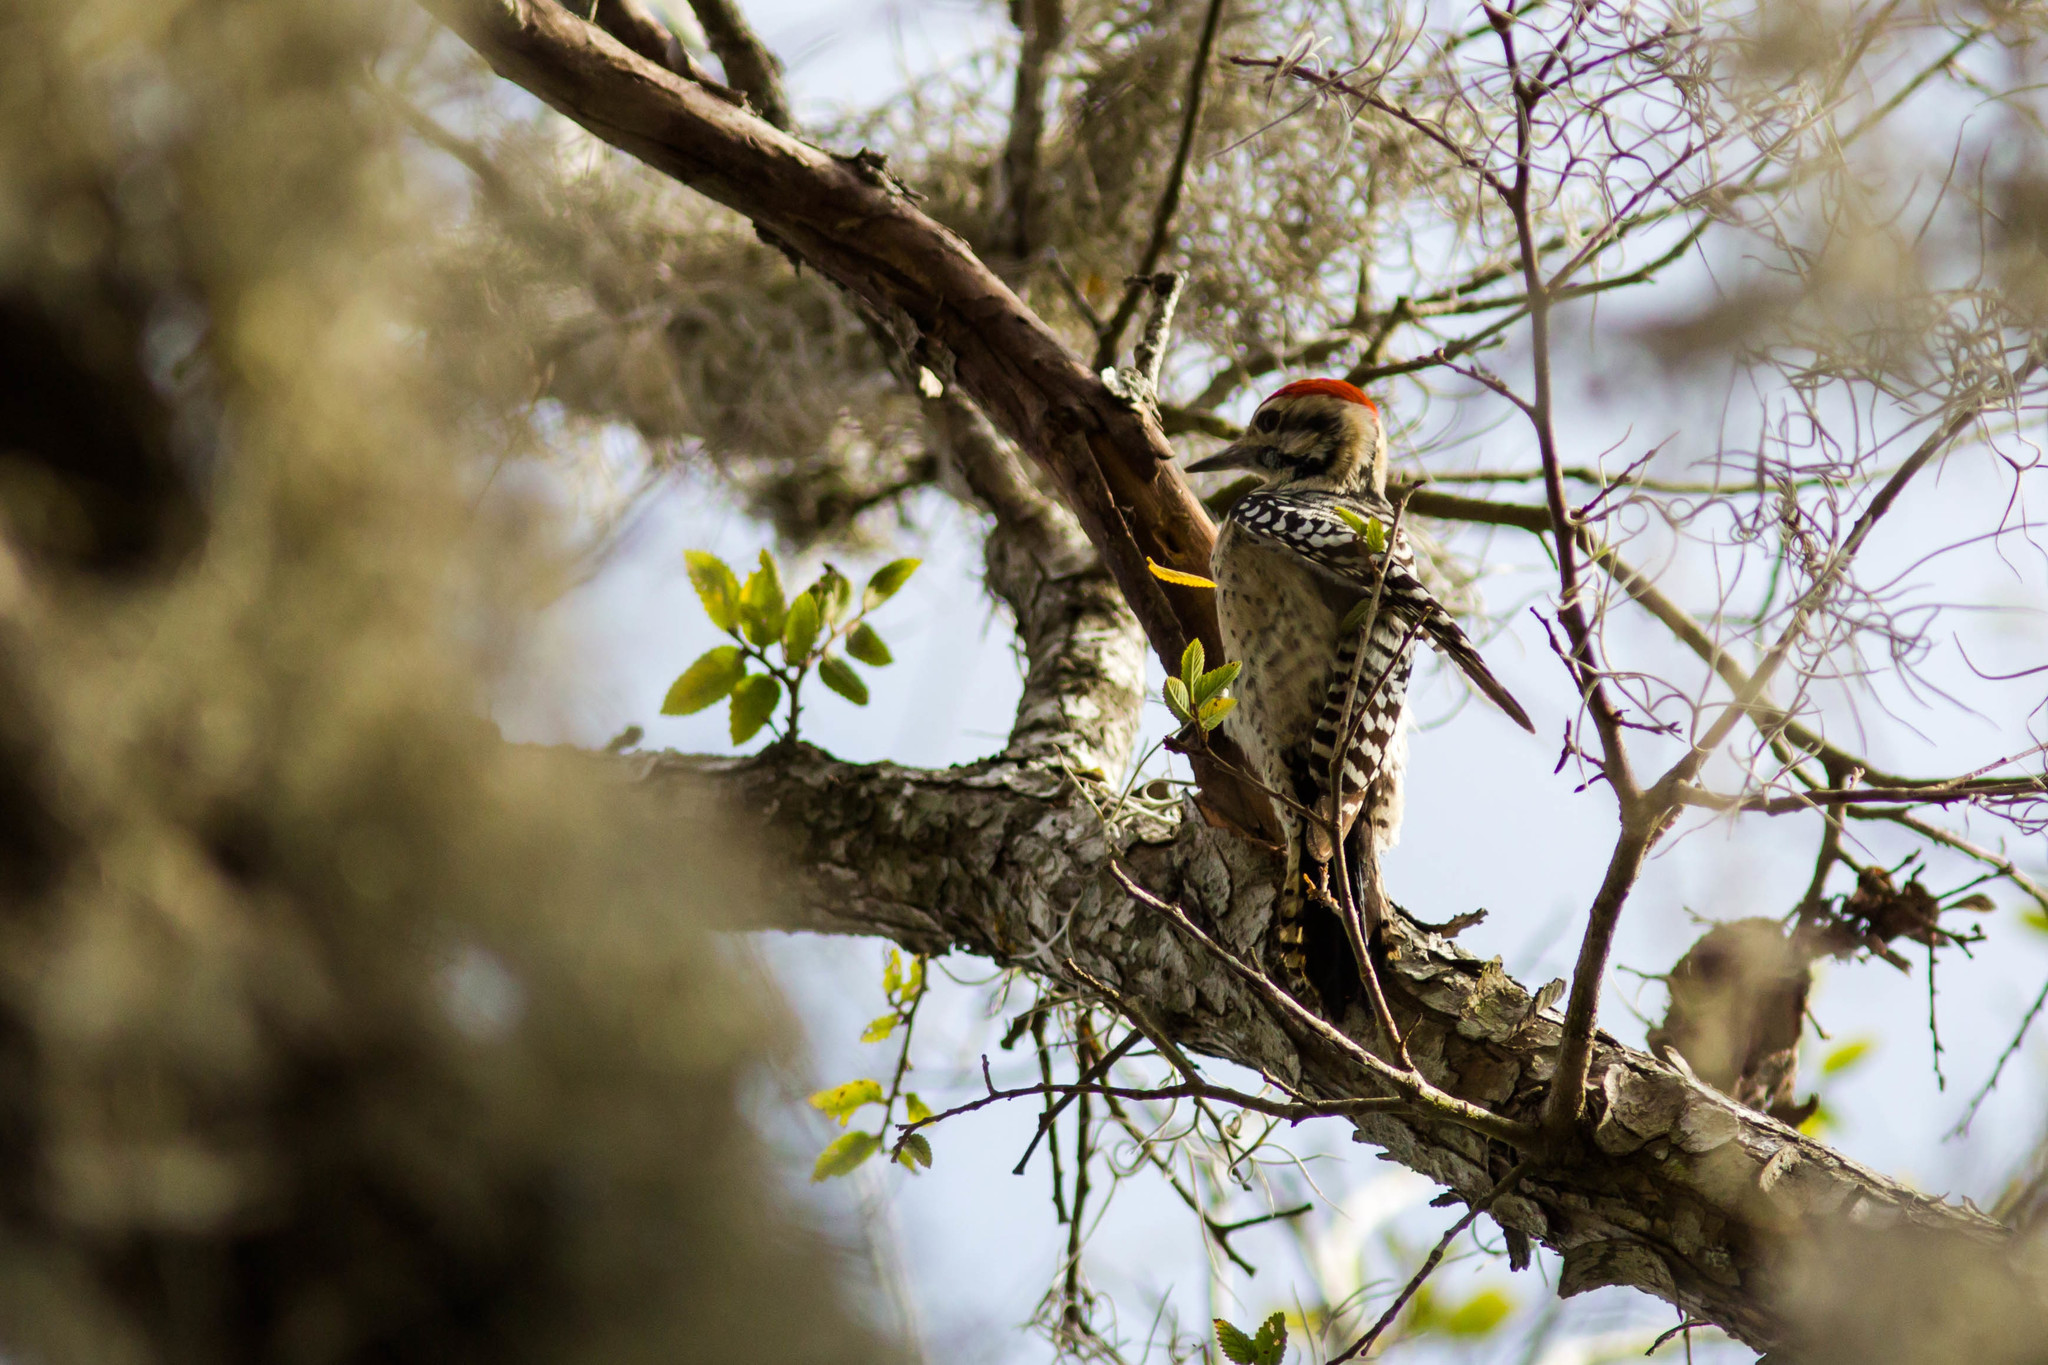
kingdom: Animalia
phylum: Chordata
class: Aves
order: Piciformes
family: Picidae
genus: Dryobates
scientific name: Dryobates scalaris
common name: Ladder-backed woodpecker
